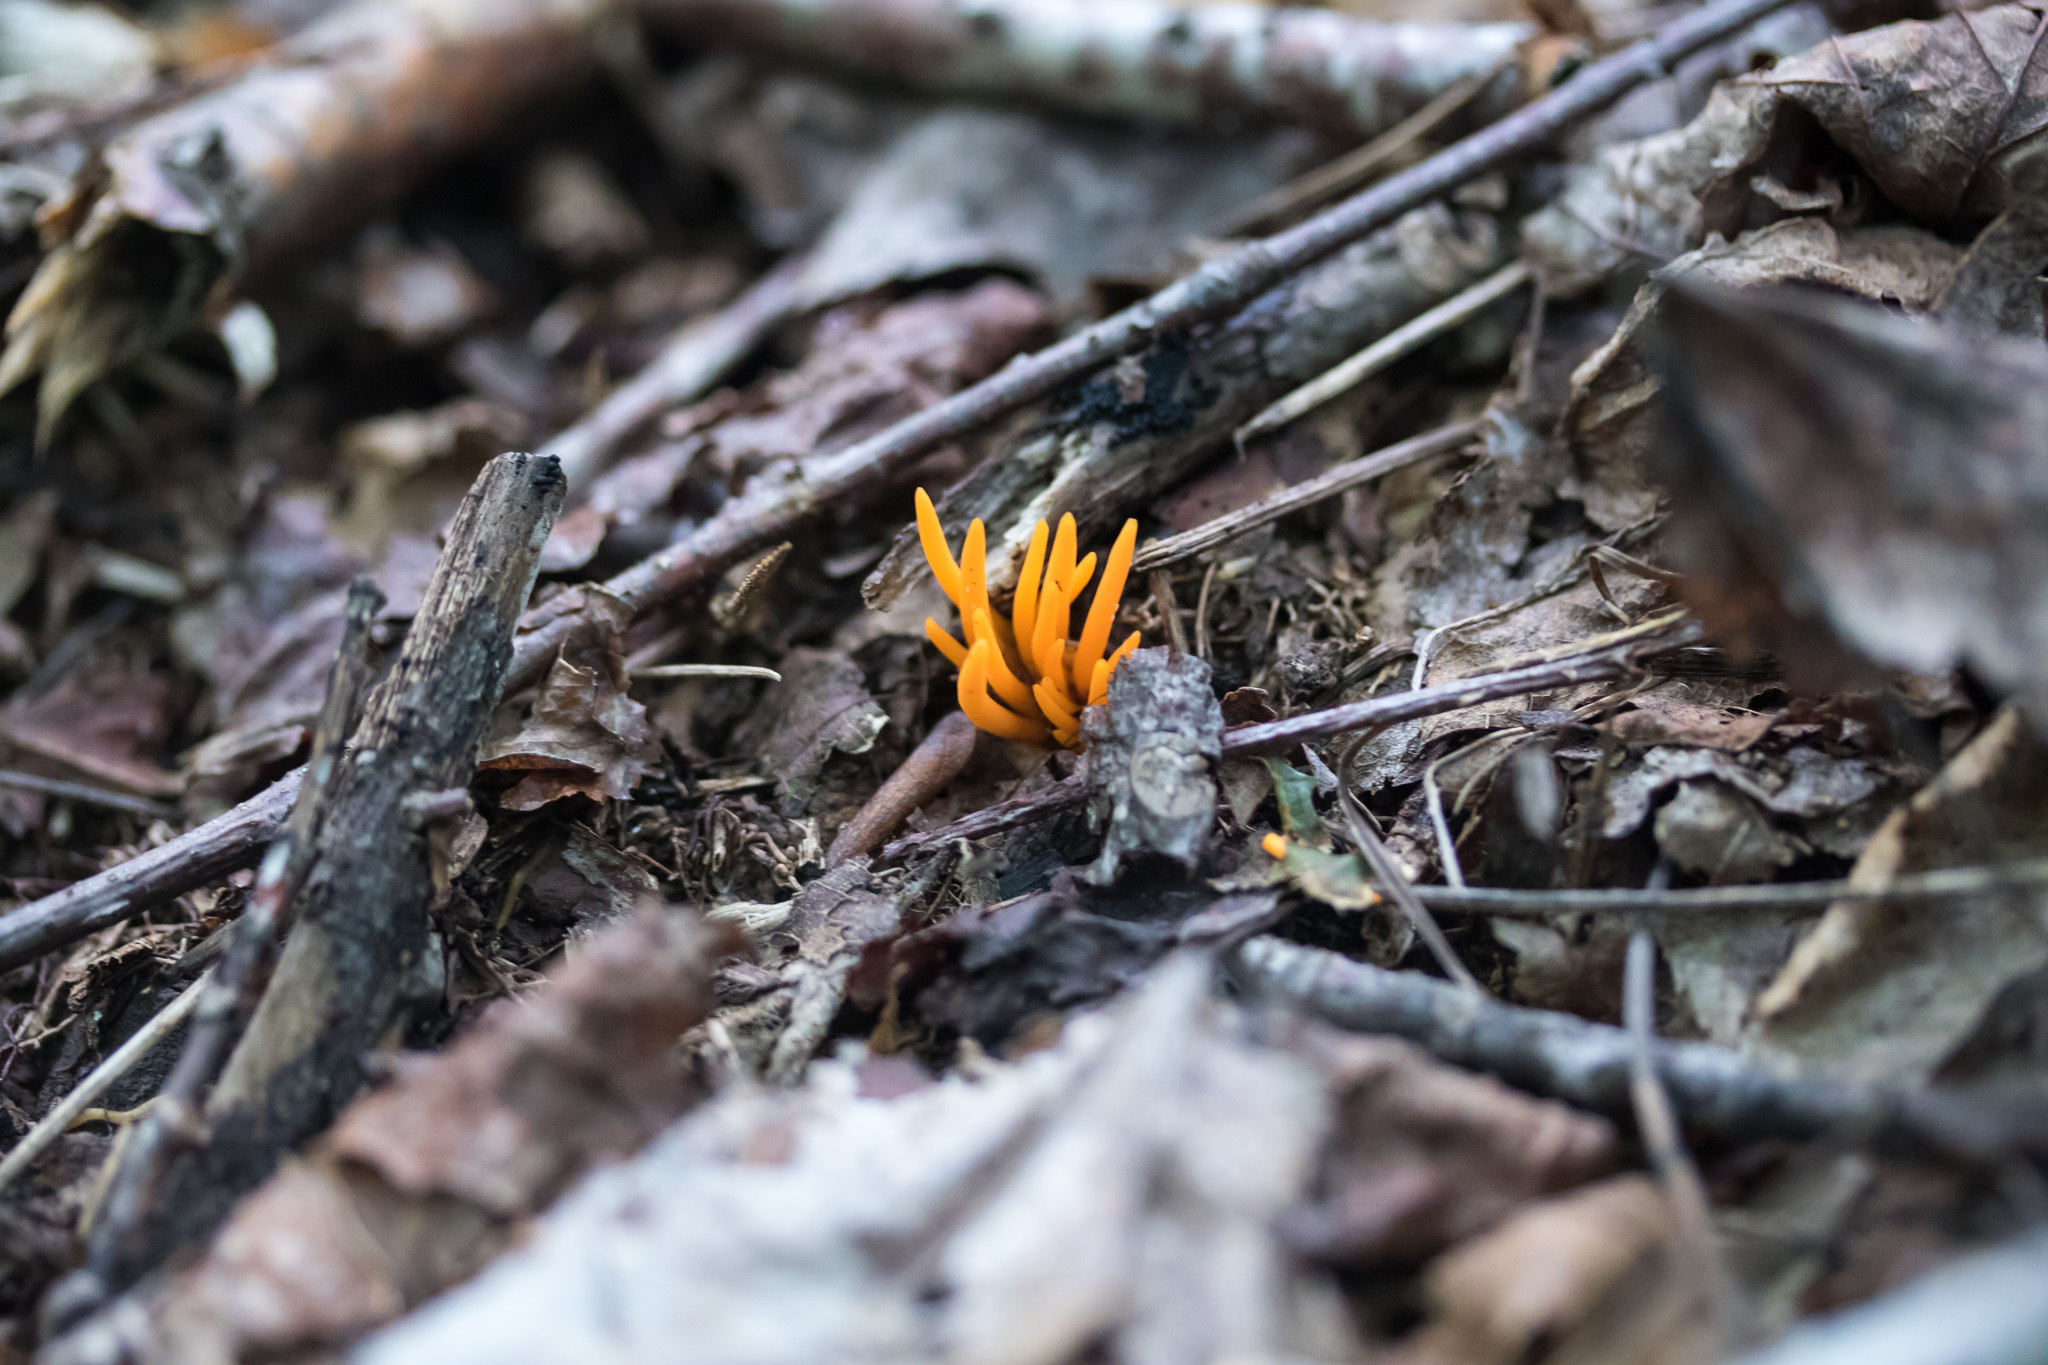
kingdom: Fungi
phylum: Basidiomycota
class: Agaricomycetes
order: Agaricales
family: Clavariaceae
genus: Clavulinopsis
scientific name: Clavulinopsis aurantiocinnabarina
